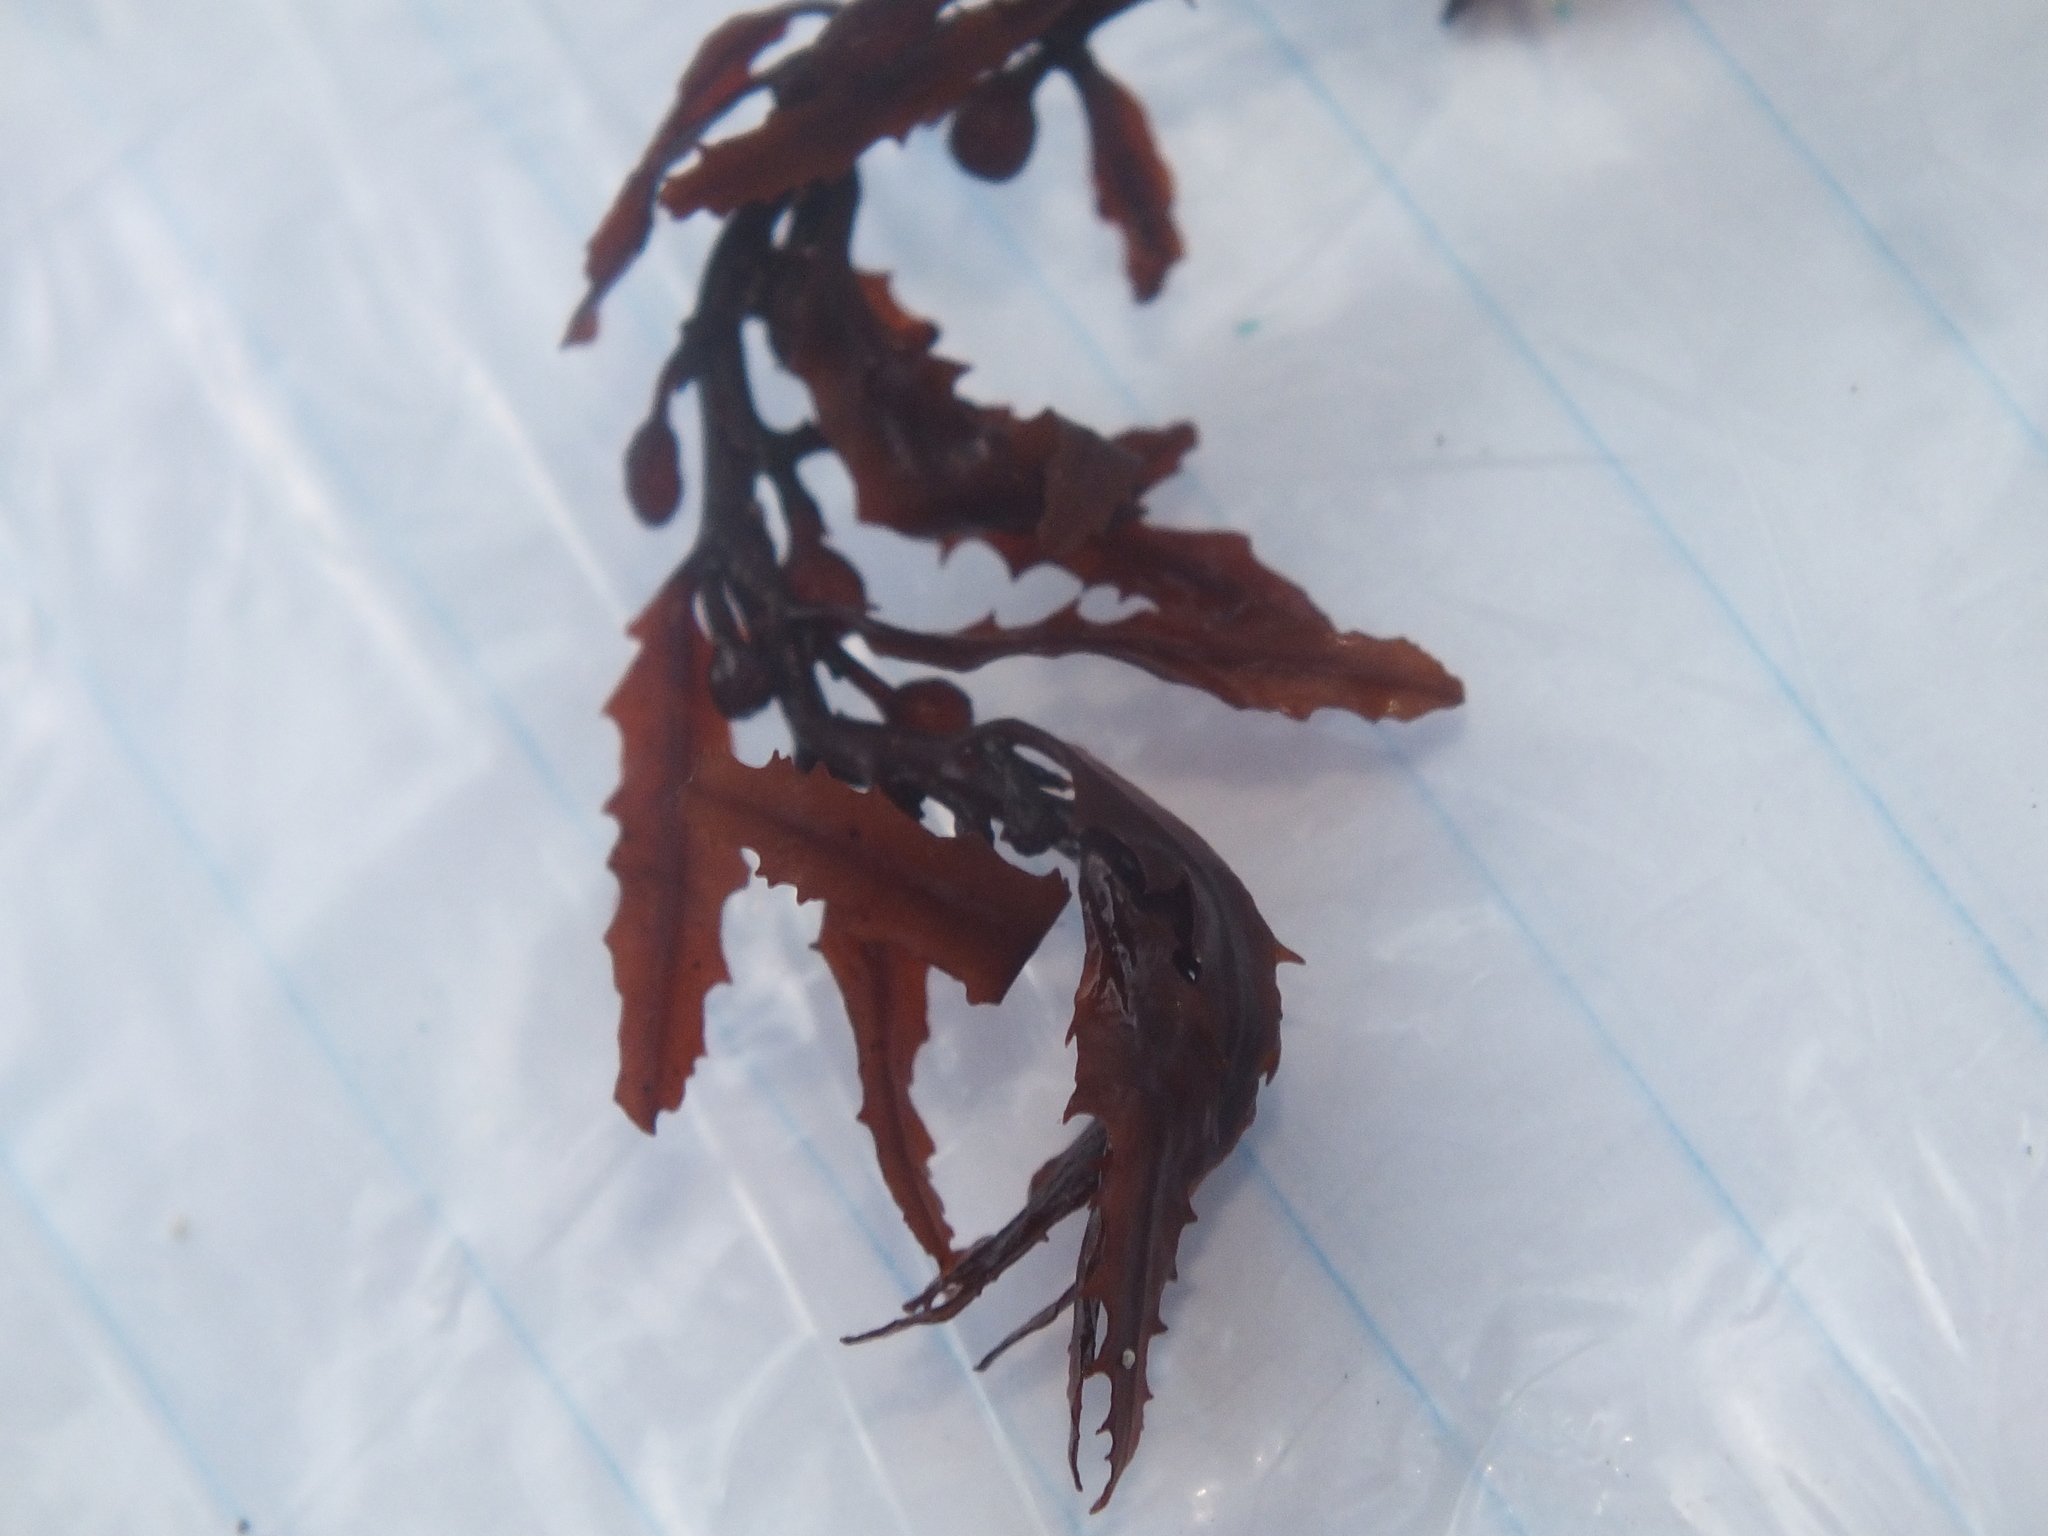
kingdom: Chromista
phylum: Ochrophyta
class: Phaeophyceae
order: Fucales
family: Sargassaceae
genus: Sargassum
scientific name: Sargassum fluitans
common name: Sargassum seaweed
